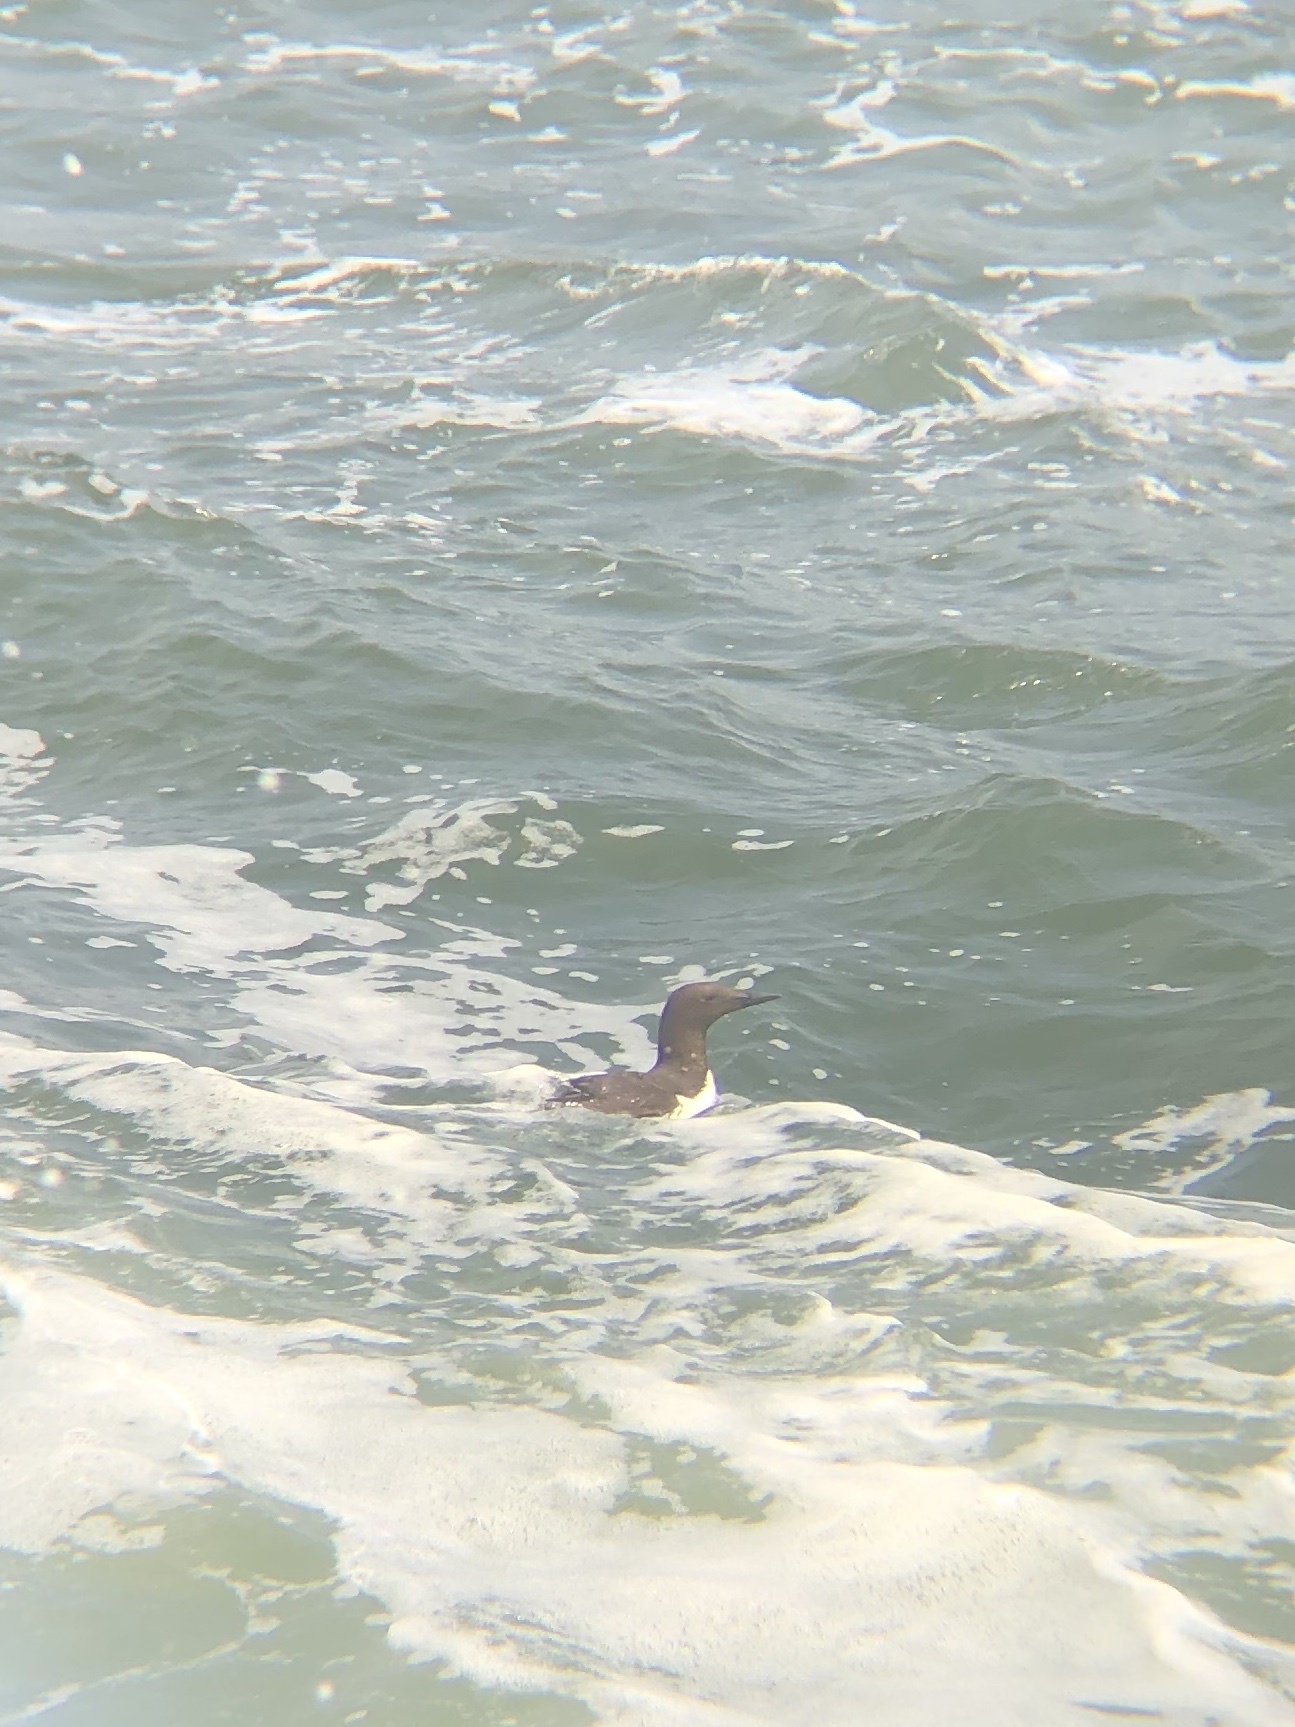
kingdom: Animalia
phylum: Chordata
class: Aves
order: Charadriiformes
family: Alcidae
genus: Uria
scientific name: Uria aalge
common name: Common murre
